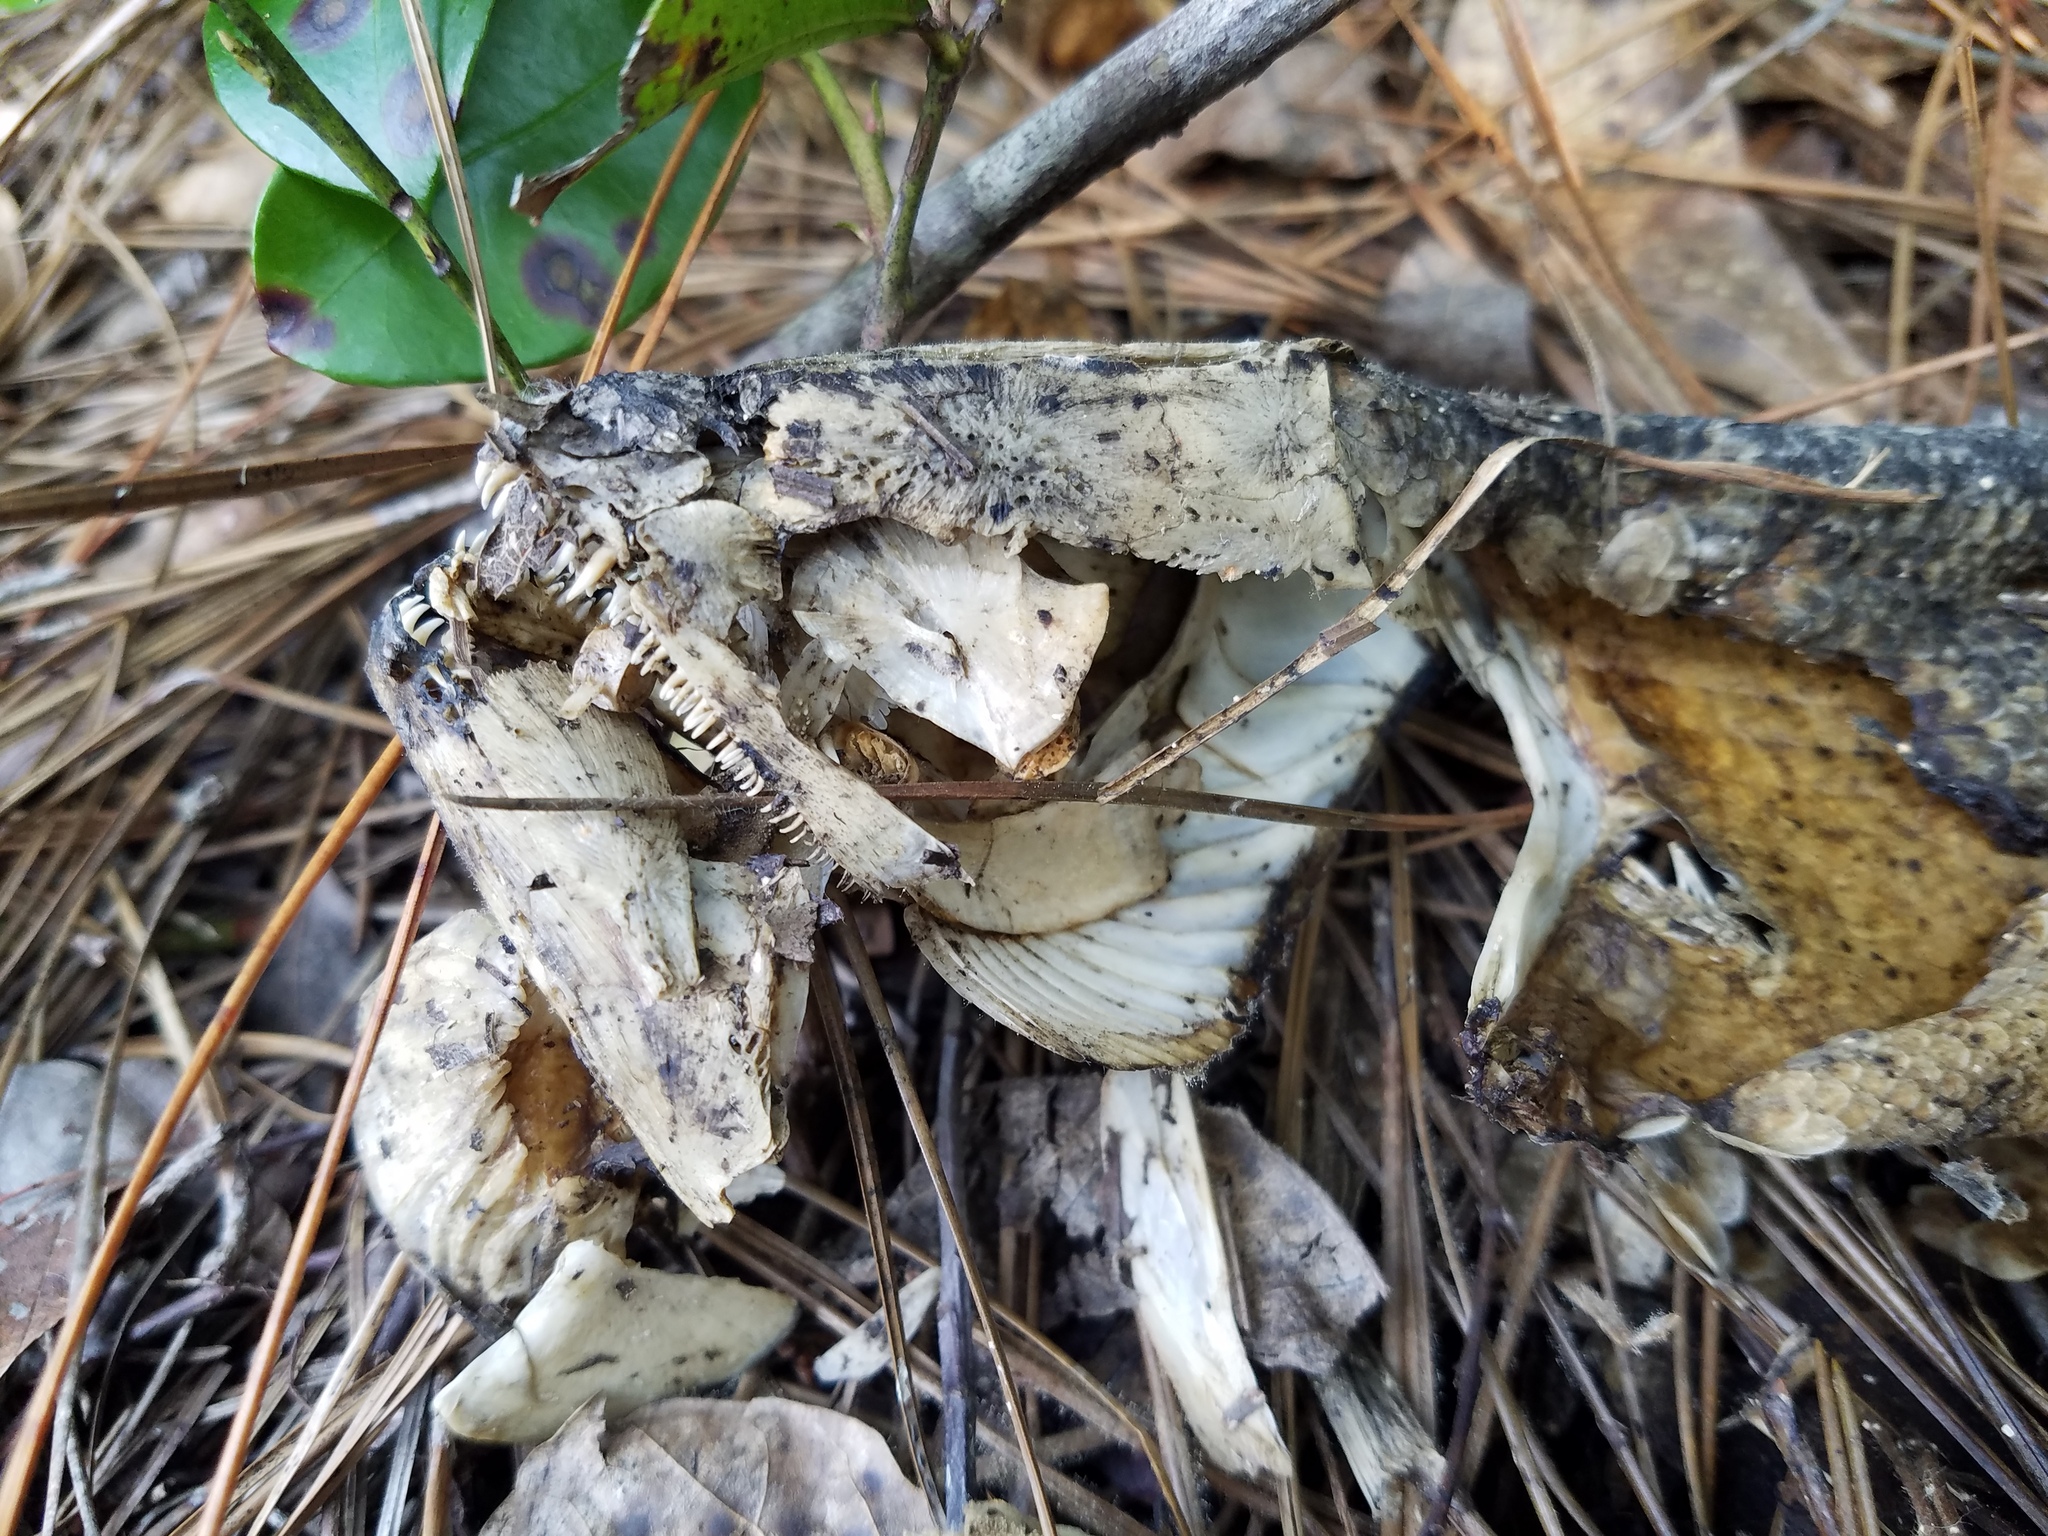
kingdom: Animalia
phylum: Chordata
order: Amiiformes
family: Amiidae
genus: Amia
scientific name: Amia calva
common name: Bowfin
